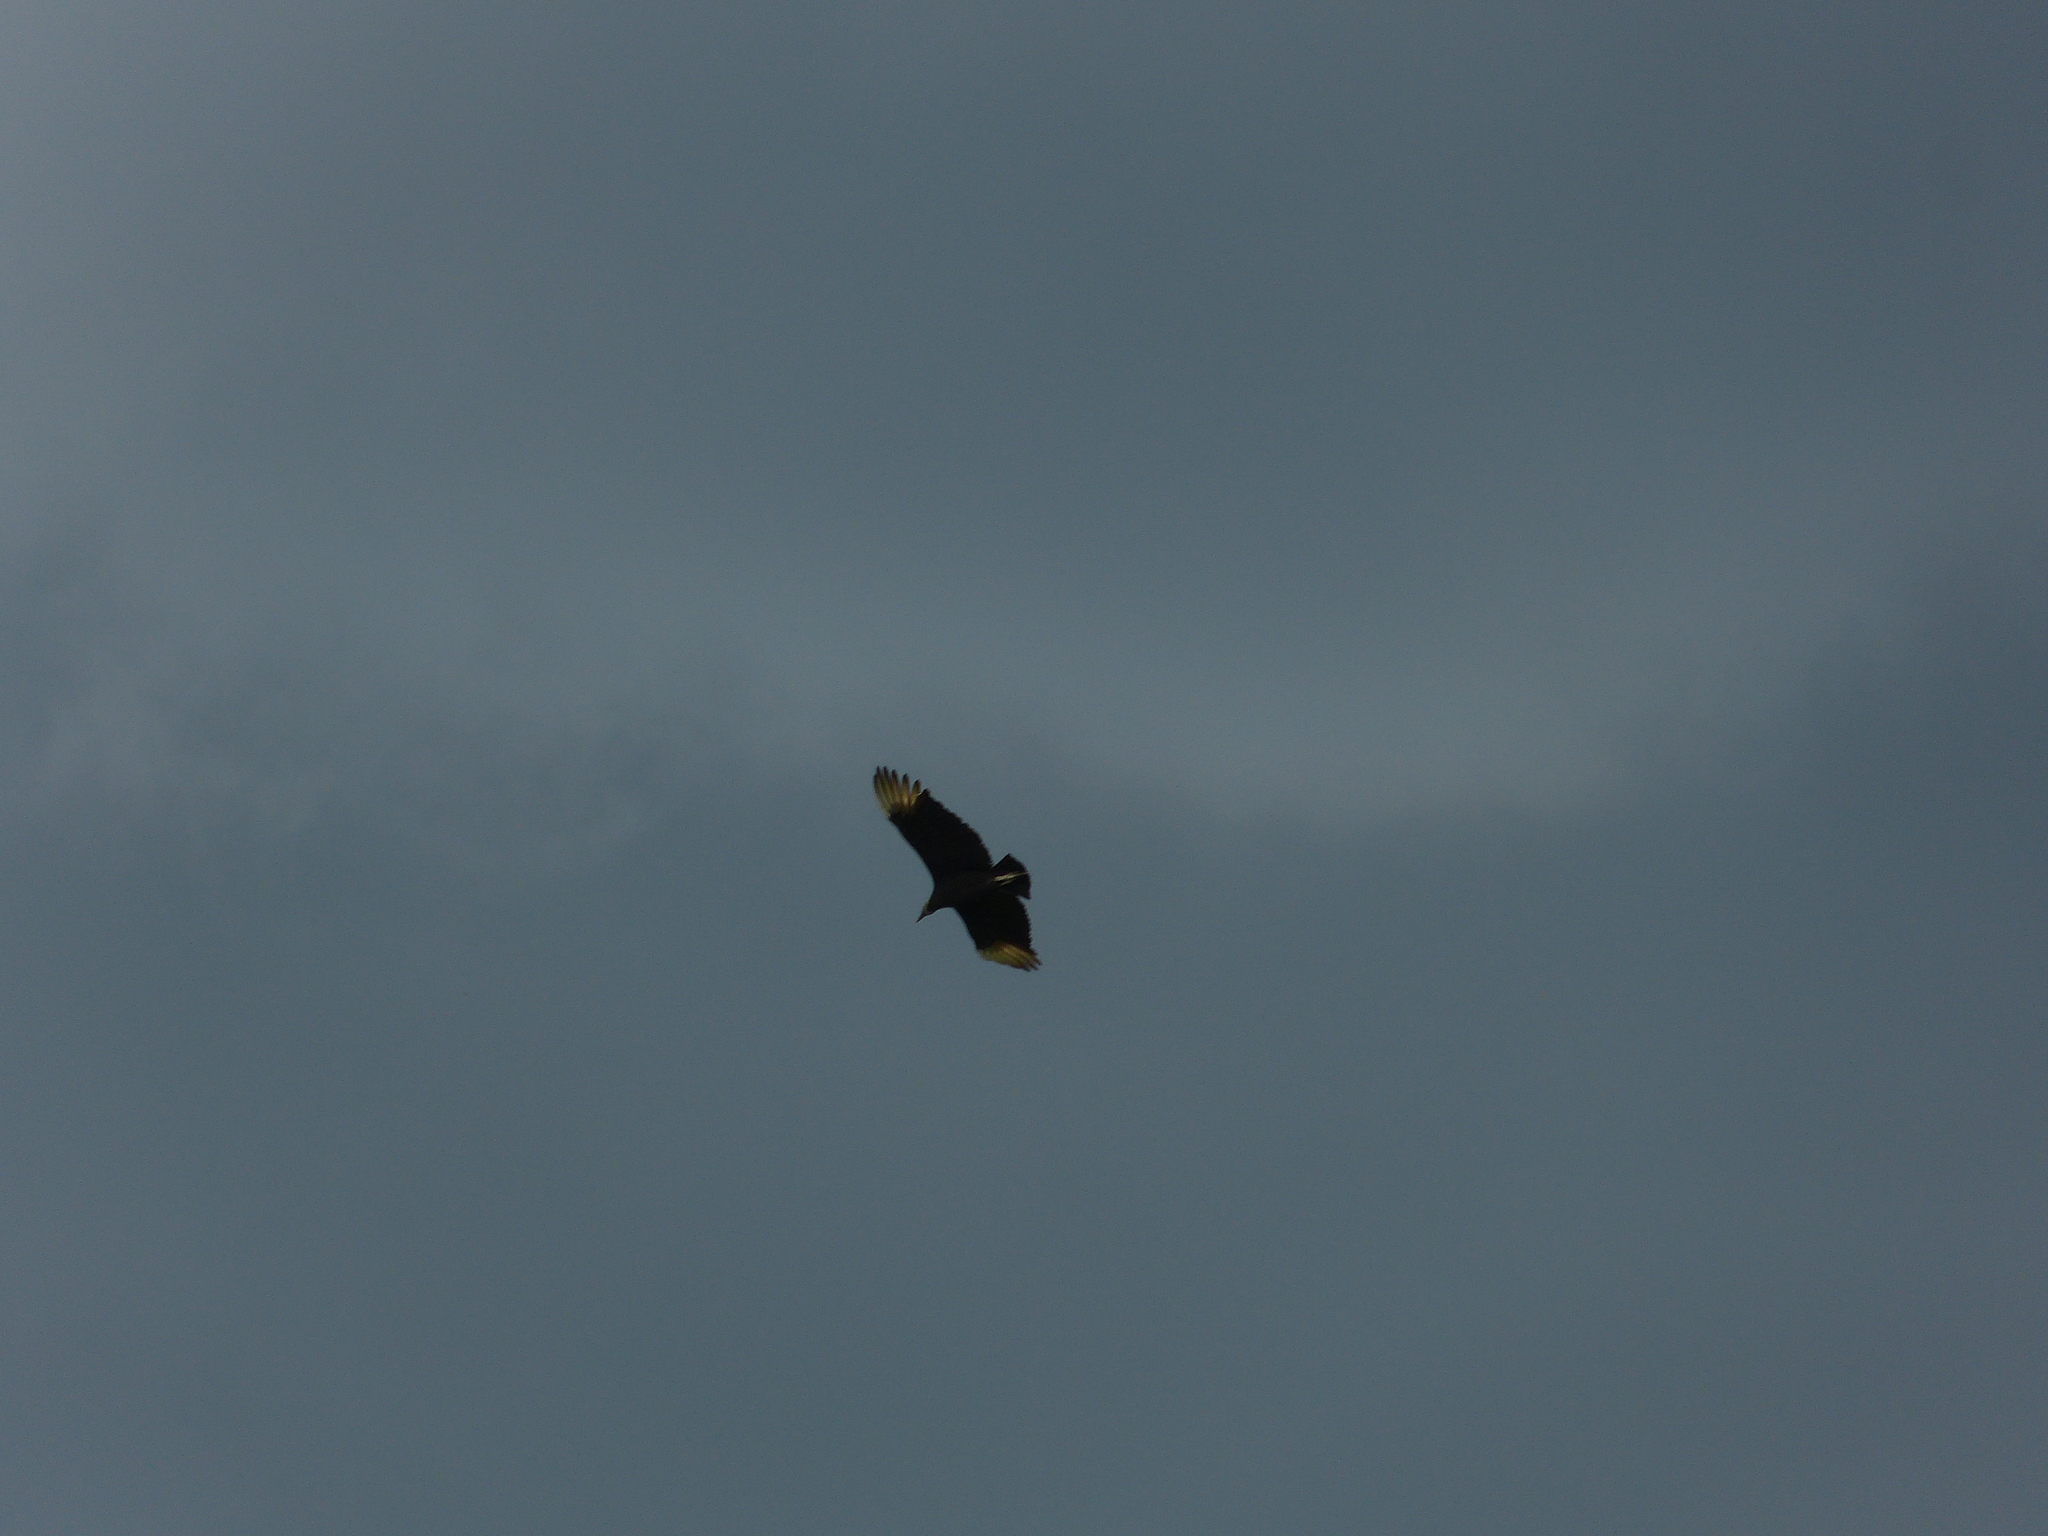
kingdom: Animalia
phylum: Chordata
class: Aves
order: Accipitriformes
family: Cathartidae
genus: Coragyps
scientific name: Coragyps atratus
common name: Black vulture
